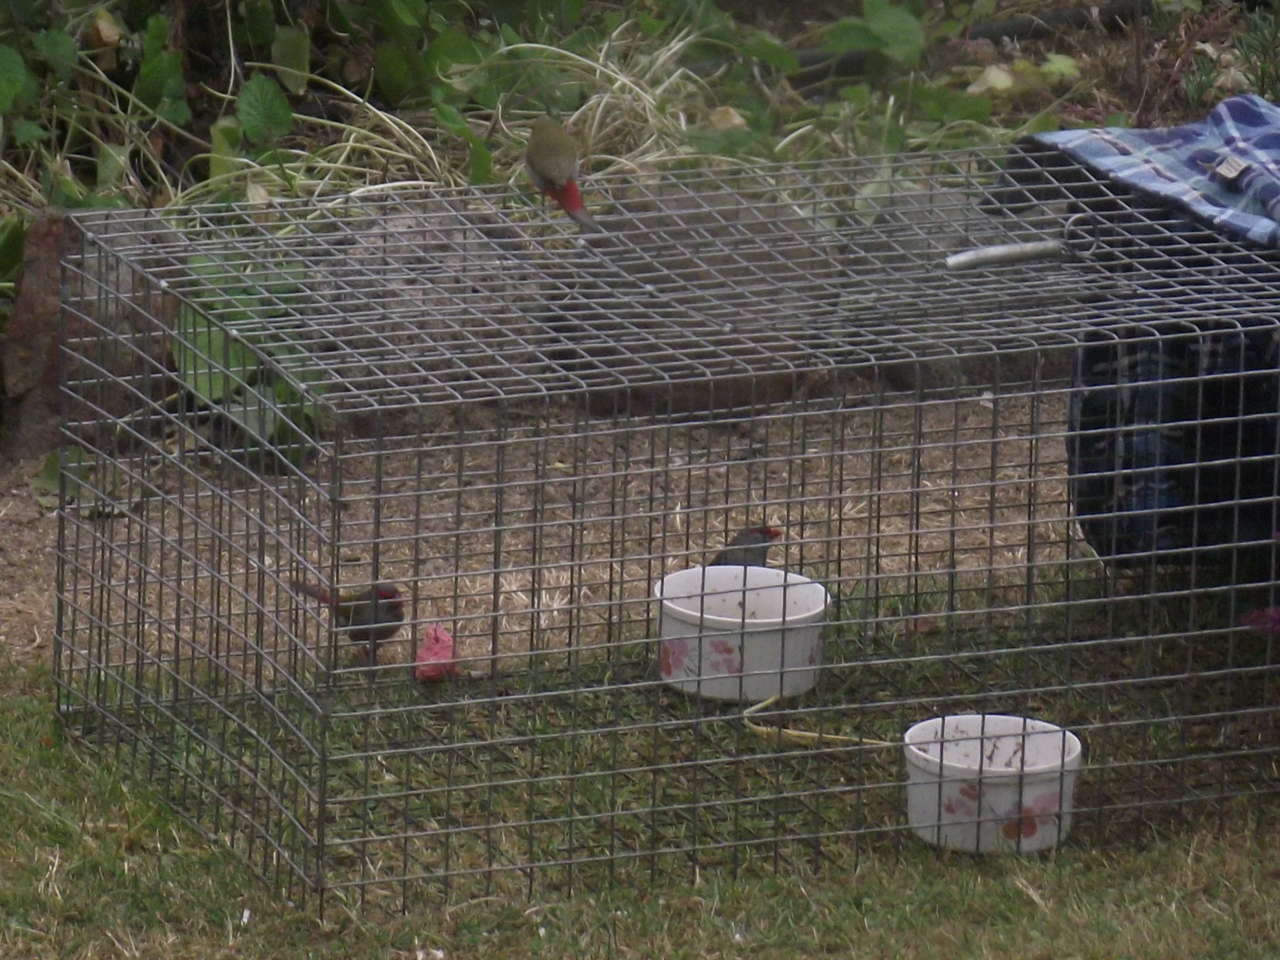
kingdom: Animalia
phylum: Chordata
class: Aves
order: Passeriformes
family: Estrildidae
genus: Neochmia
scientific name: Neochmia temporalis
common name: Red-browed finch
